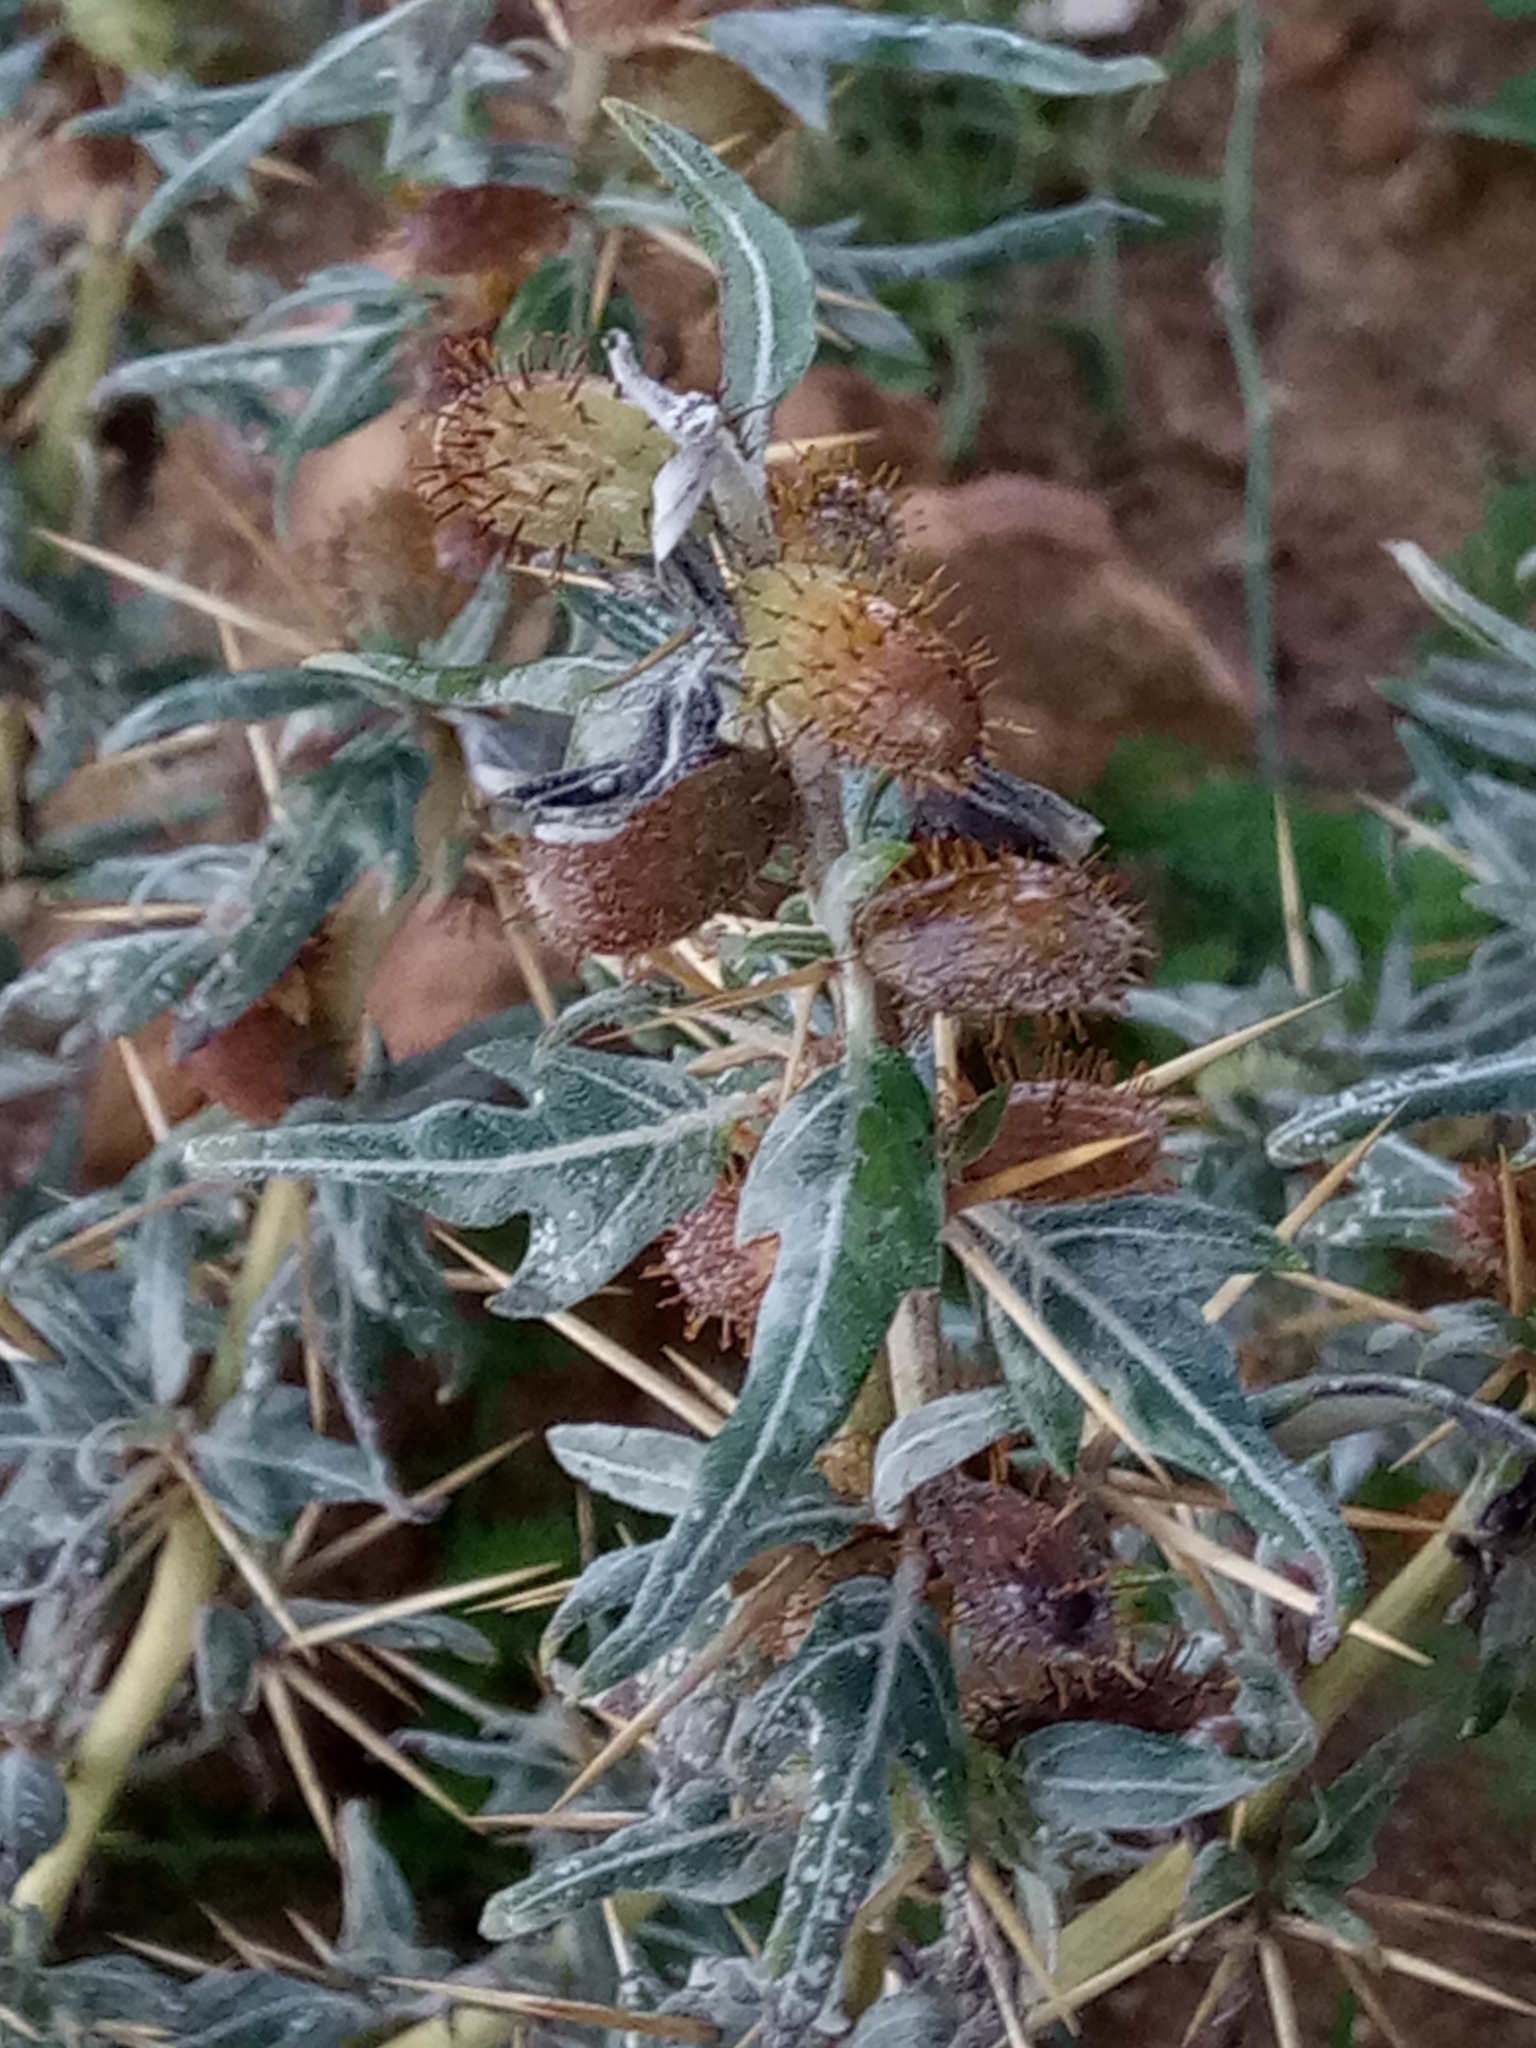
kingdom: Plantae
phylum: Tracheophyta
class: Magnoliopsida
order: Asterales
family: Asteraceae
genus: Xanthium
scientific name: Xanthium spinosum
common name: Spiny cocklebur
